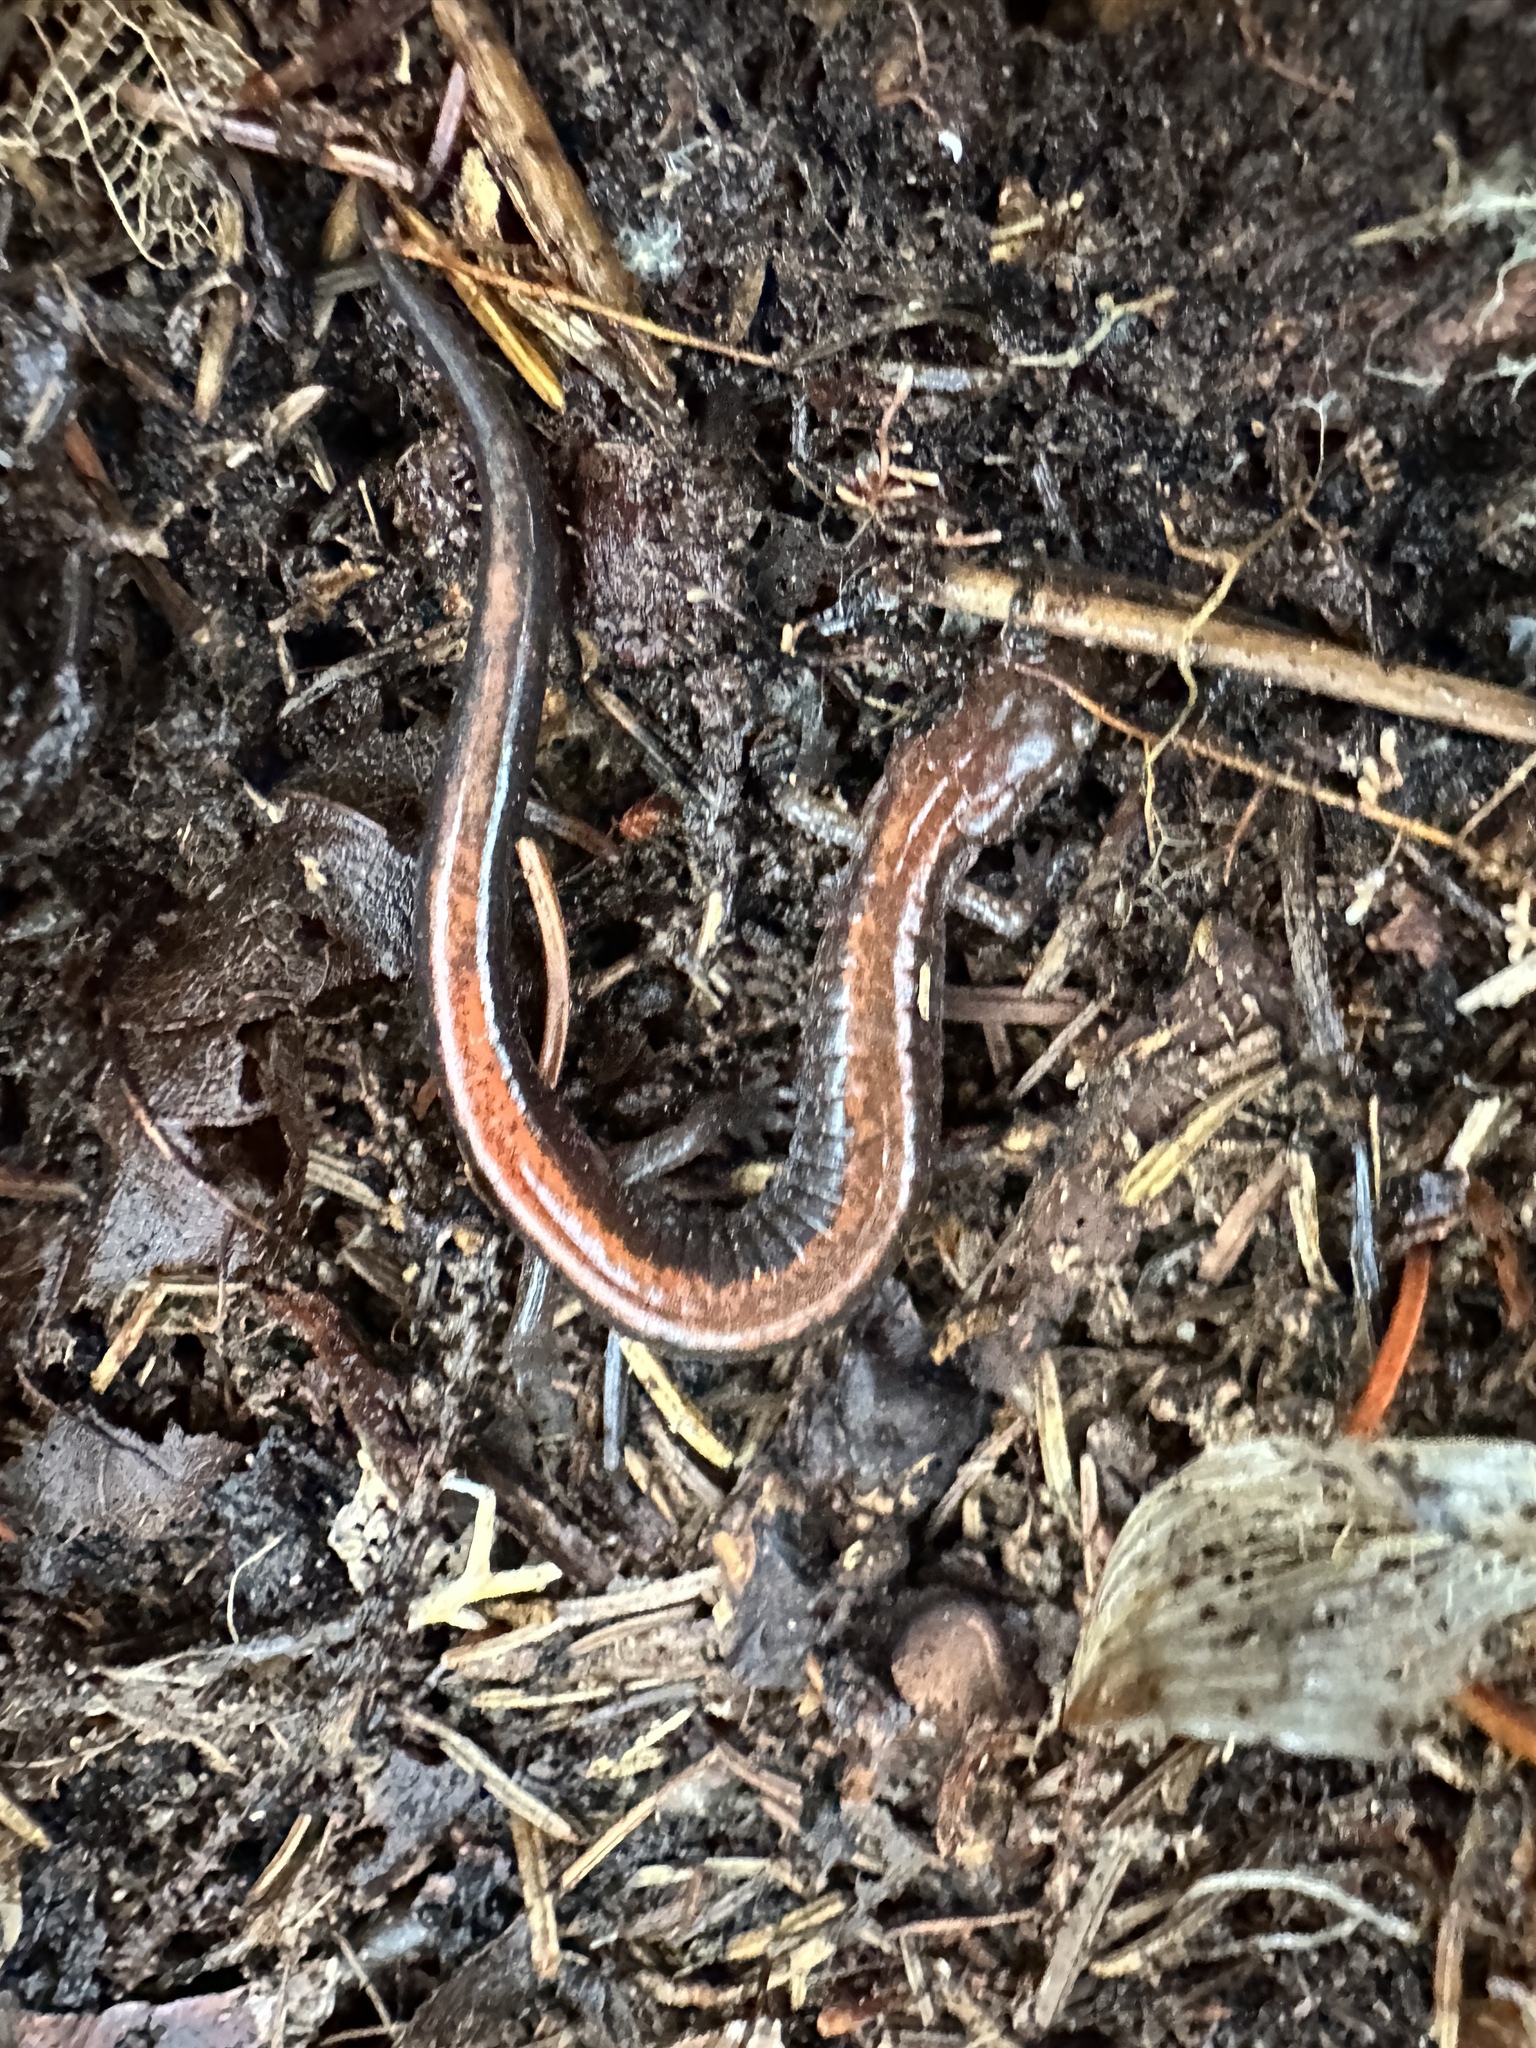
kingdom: Animalia
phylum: Chordata
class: Amphibia
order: Caudata
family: Plethodontidae
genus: Plethodon
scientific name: Plethodon cinereus
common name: Redback salamander
